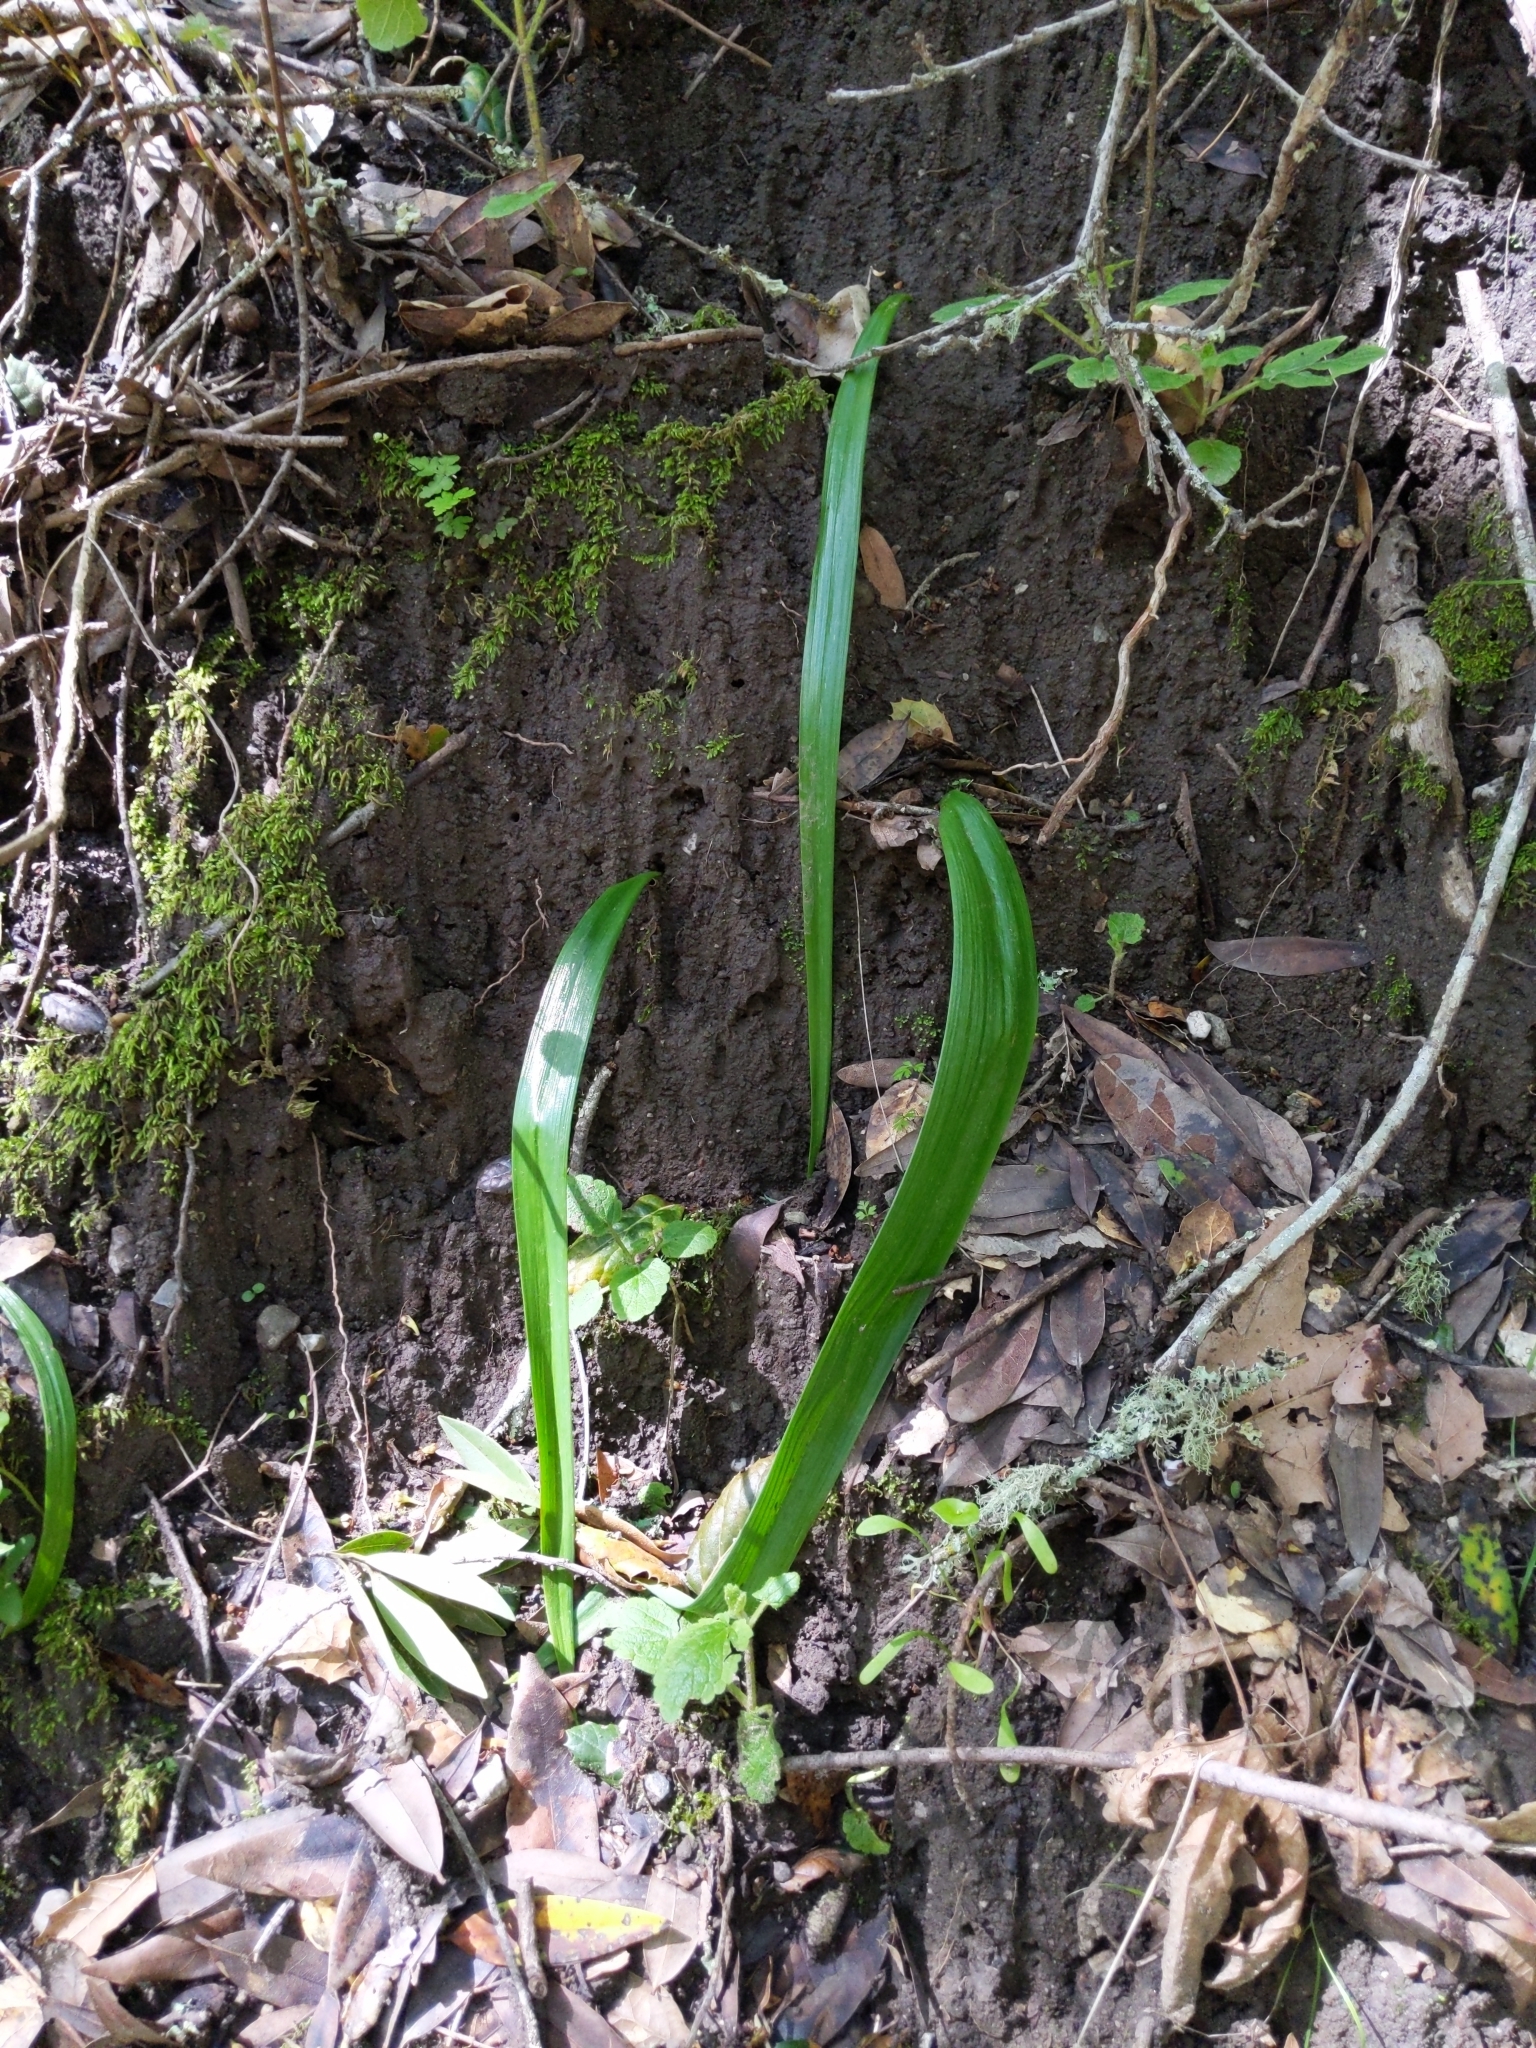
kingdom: Plantae
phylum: Tracheophyta
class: Liliopsida
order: Liliales
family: Liliaceae
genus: Calochortus
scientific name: Calochortus albus
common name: Fairy-lantern
